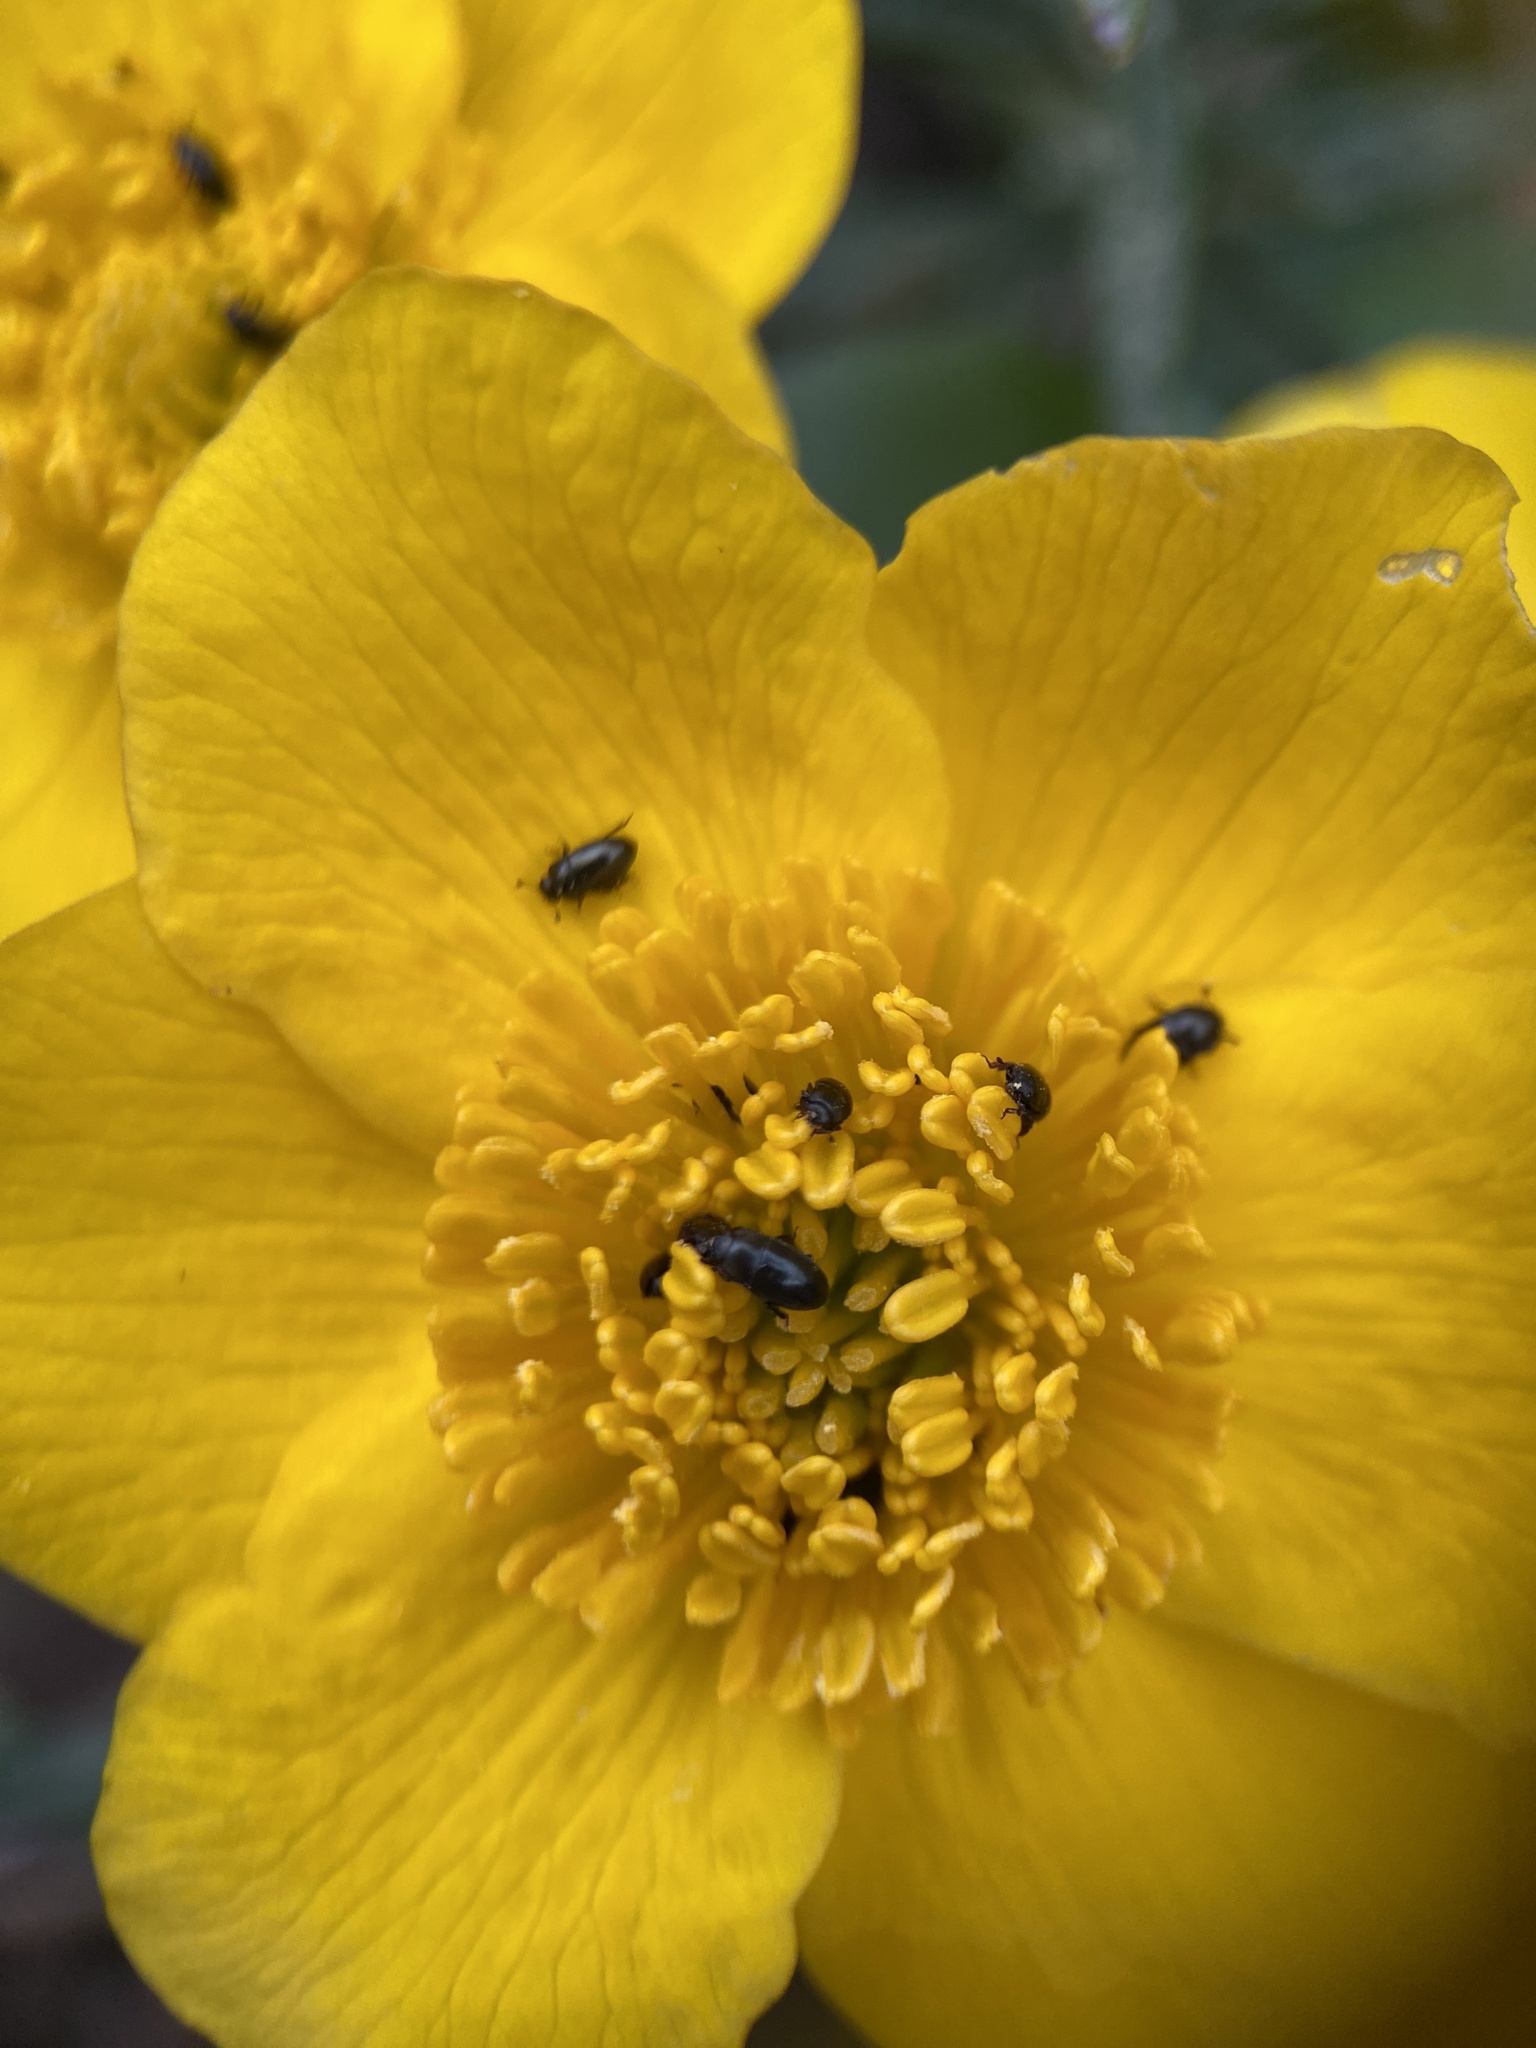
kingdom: Plantae
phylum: Tracheophyta
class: Magnoliopsida
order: Ranunculales
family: Ranunculaceae
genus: Caltha
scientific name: Caltha palustris
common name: Marsh marigold
